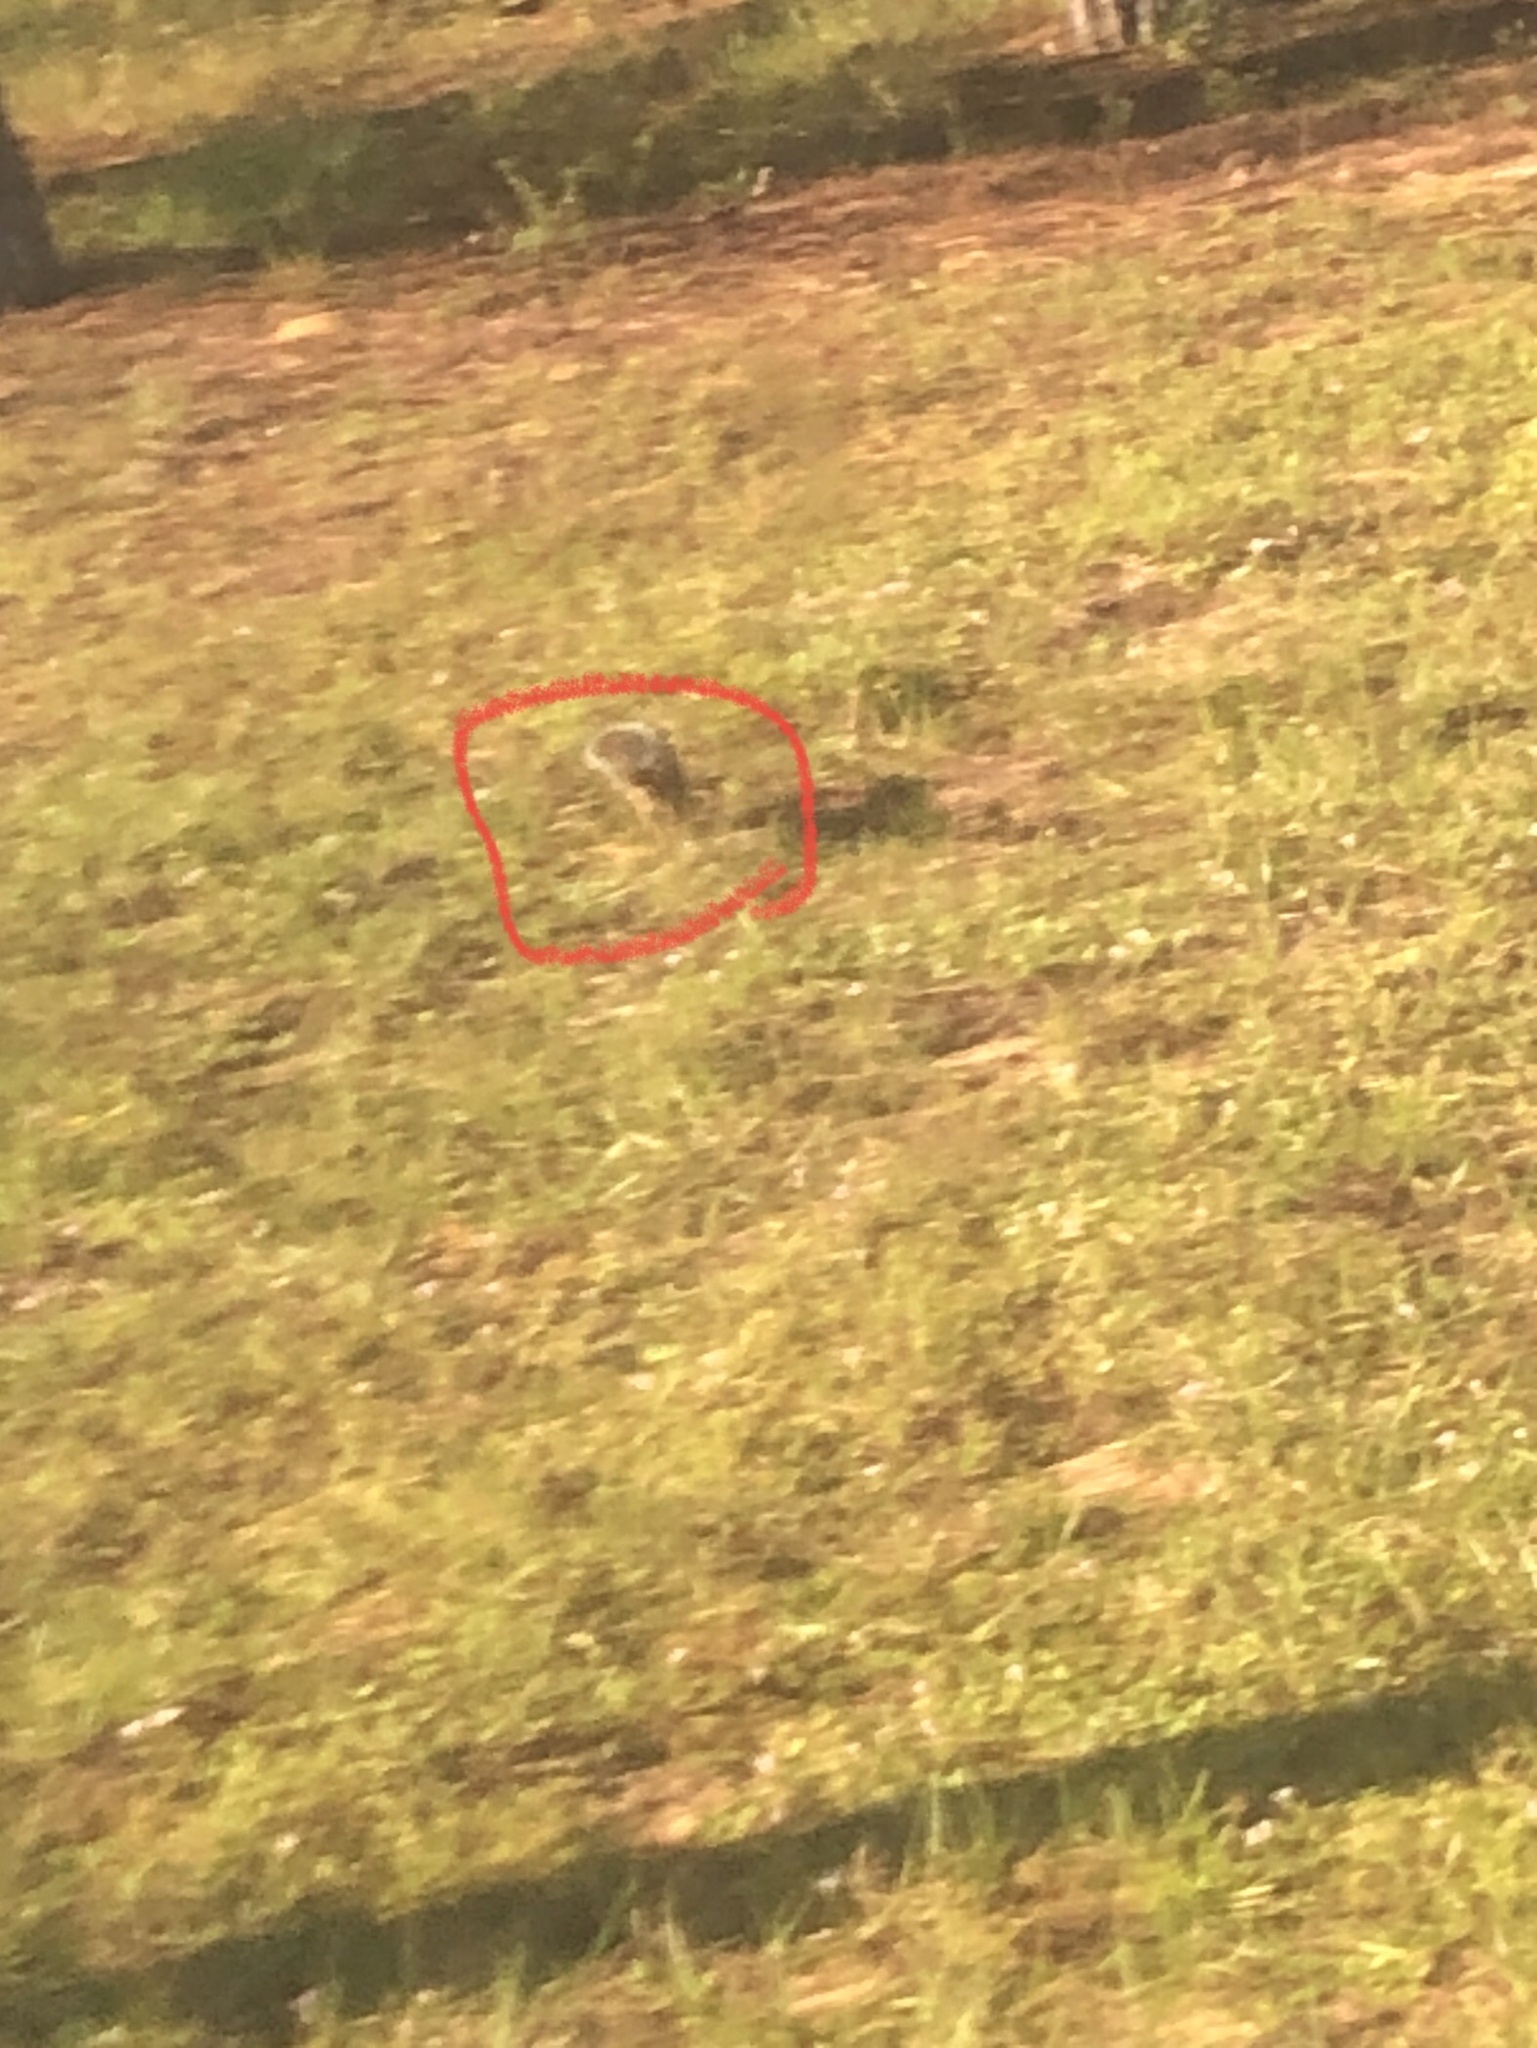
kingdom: Animalia
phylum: Chordata
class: Mammalia
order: Rodentia
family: Sciuridae
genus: Sciurus
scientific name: Sciurus carolinensis
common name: Eastern gray squirrel
